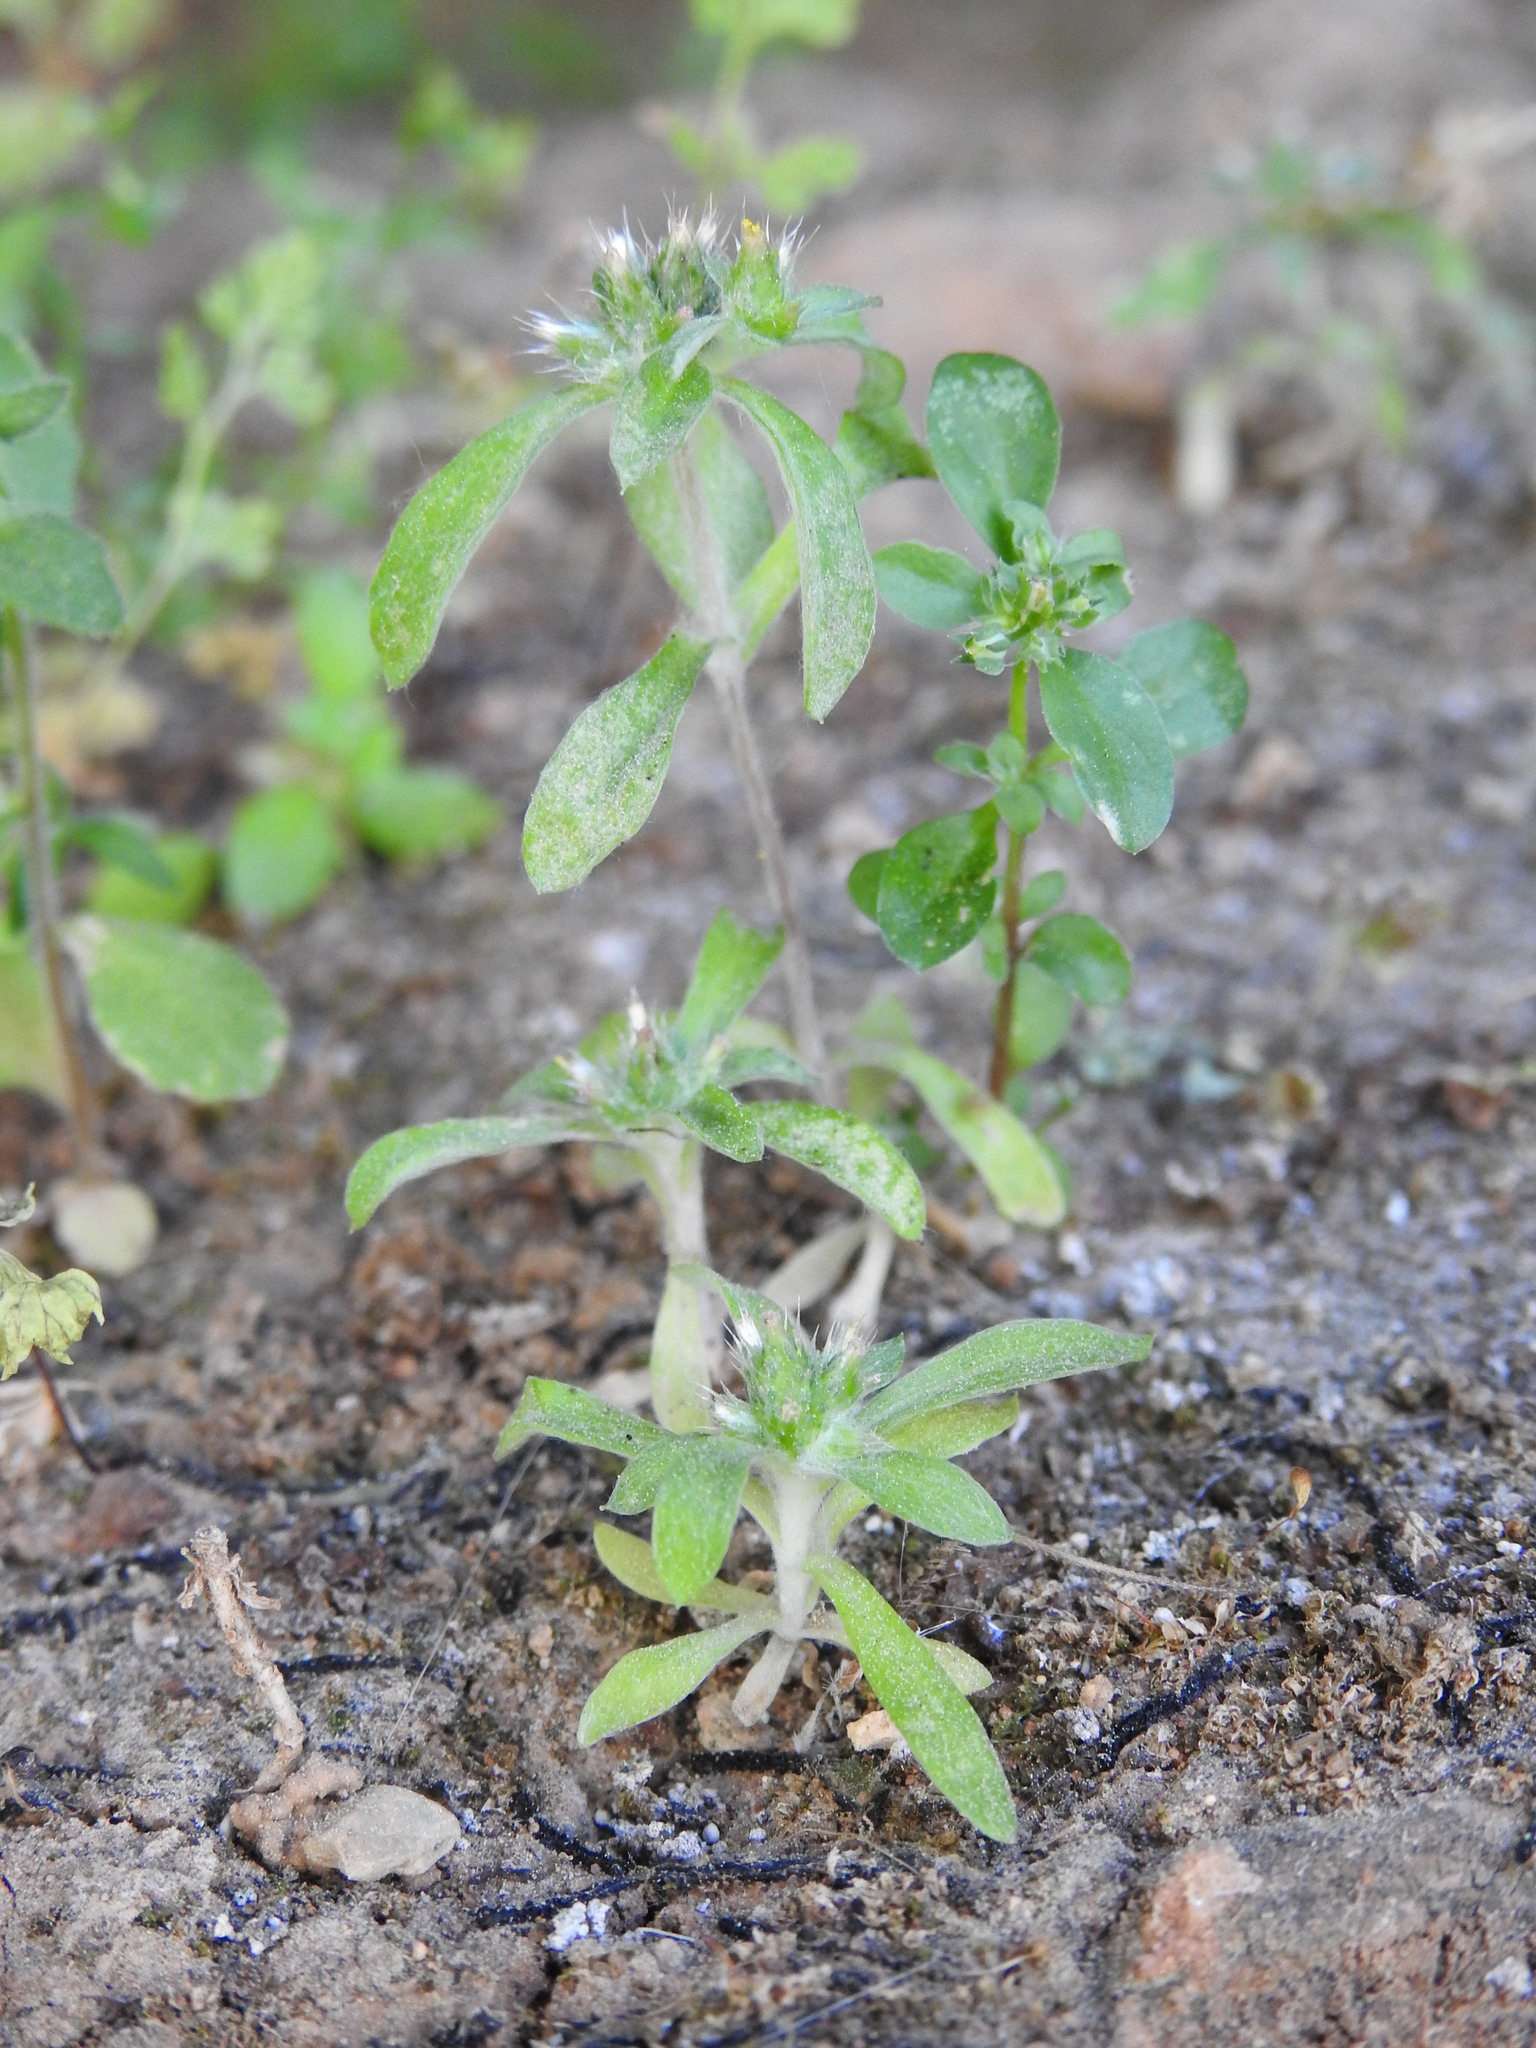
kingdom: Plantae
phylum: Tracheophyta
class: Magnoliopsida
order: Asterales
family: Asteraceae
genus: Filago
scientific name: Filago cretensis
